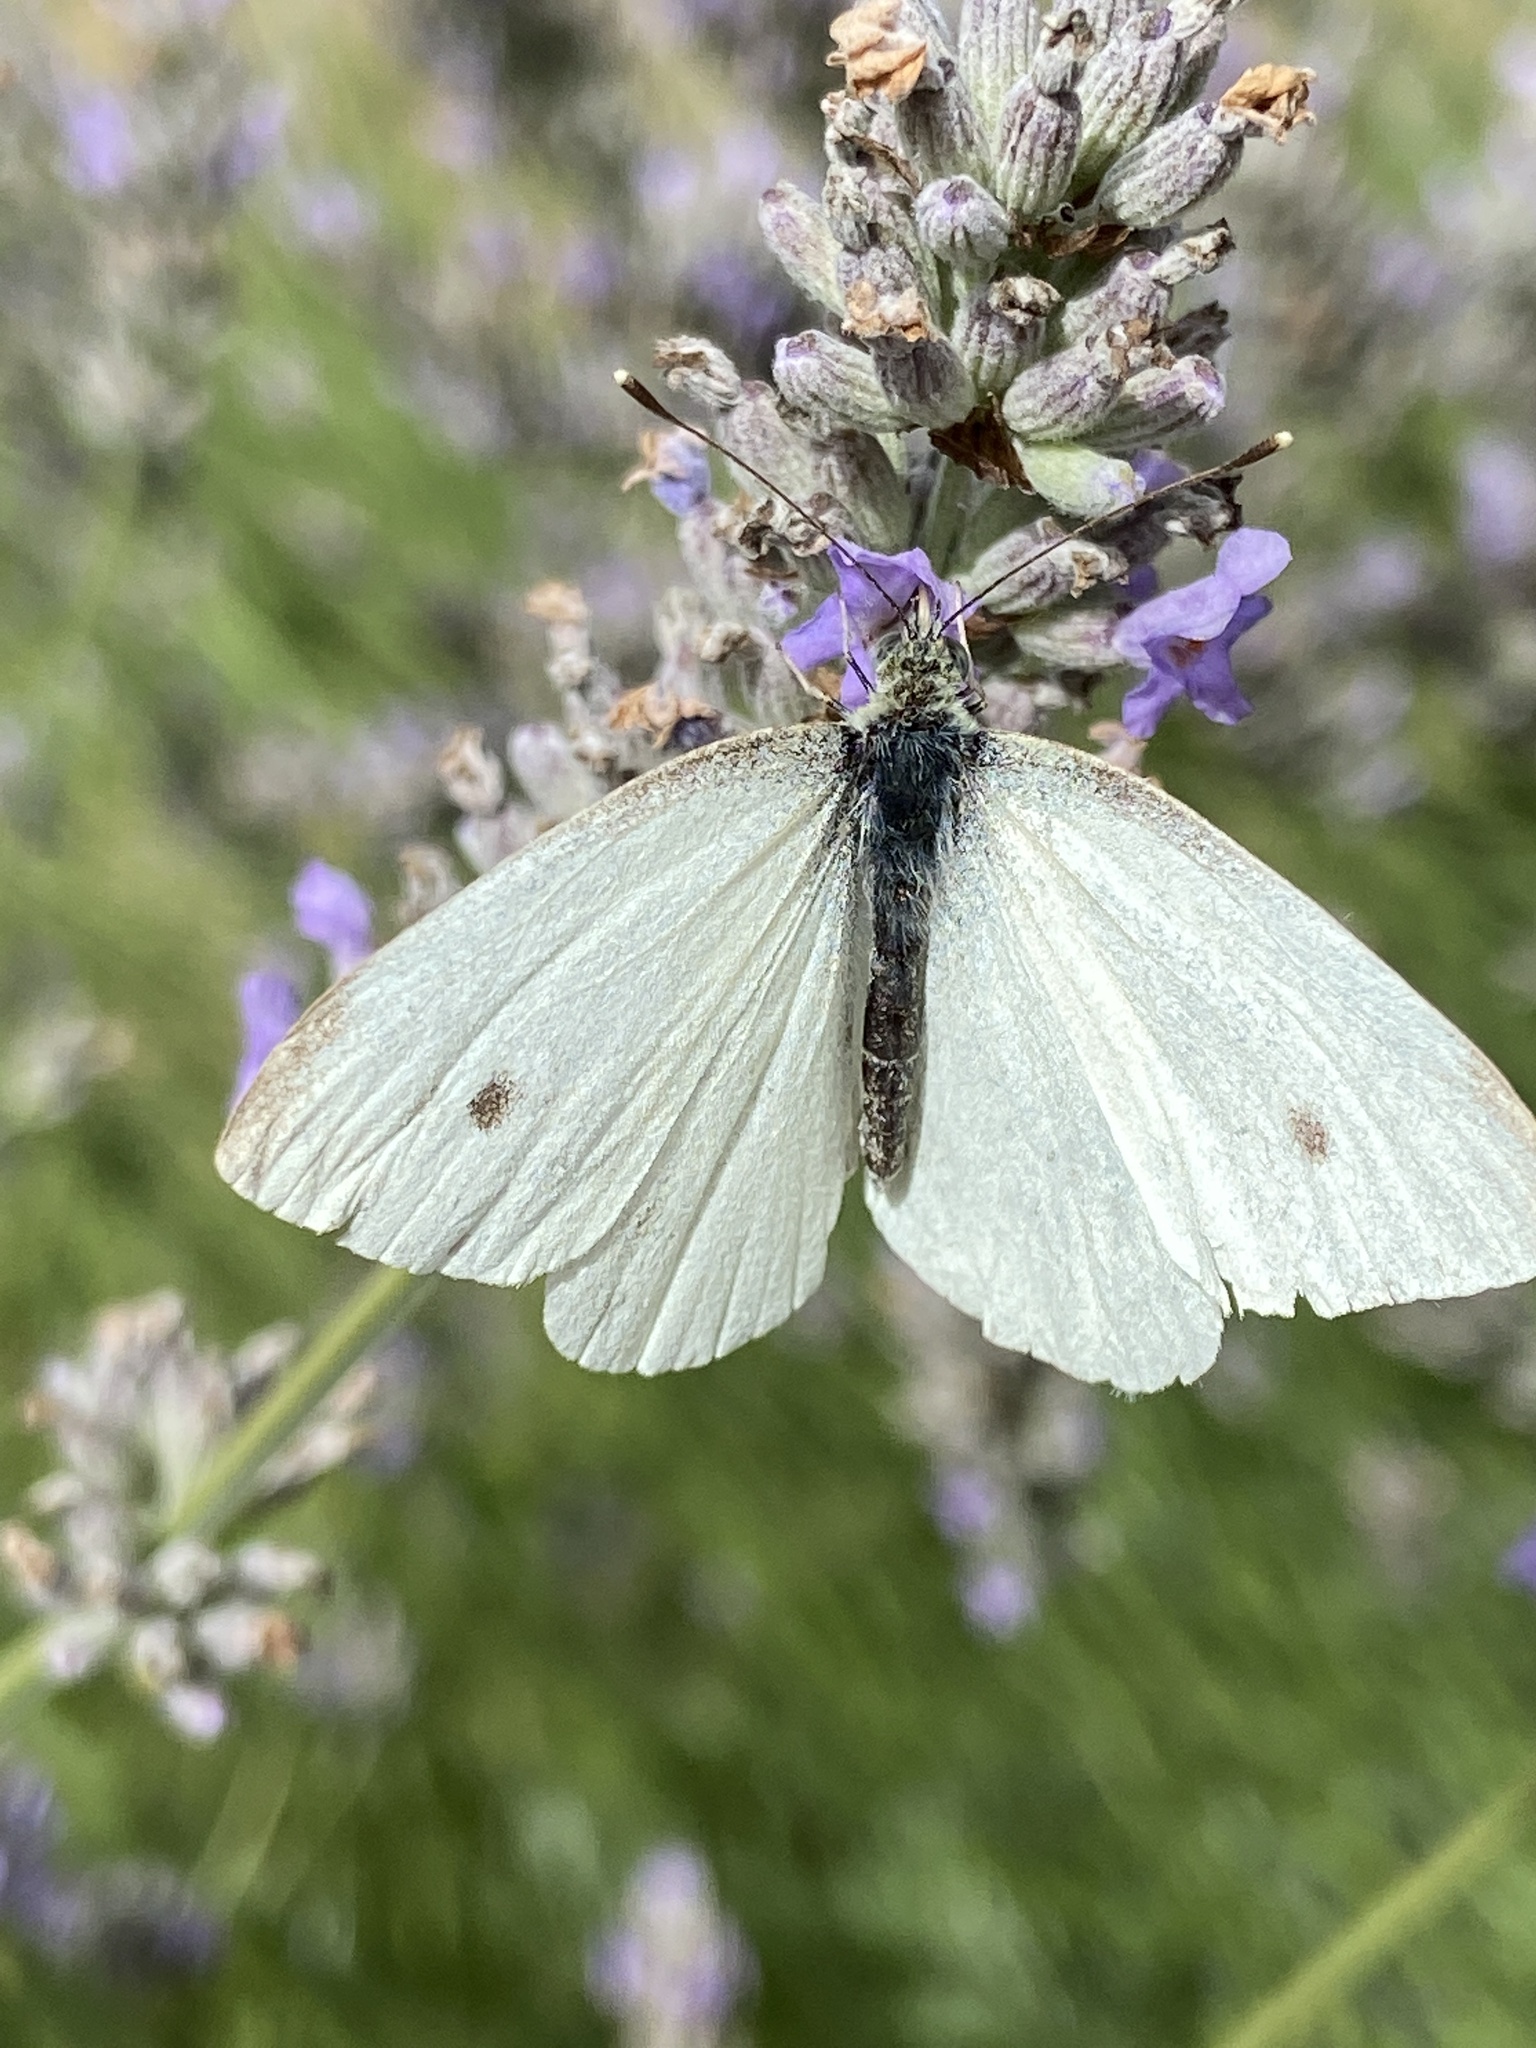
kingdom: Animalia
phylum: Arthropoda
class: Insecta
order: Lepidoptera
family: Pieridae
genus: Pieris
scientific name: Pieris rapae
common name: Small white
